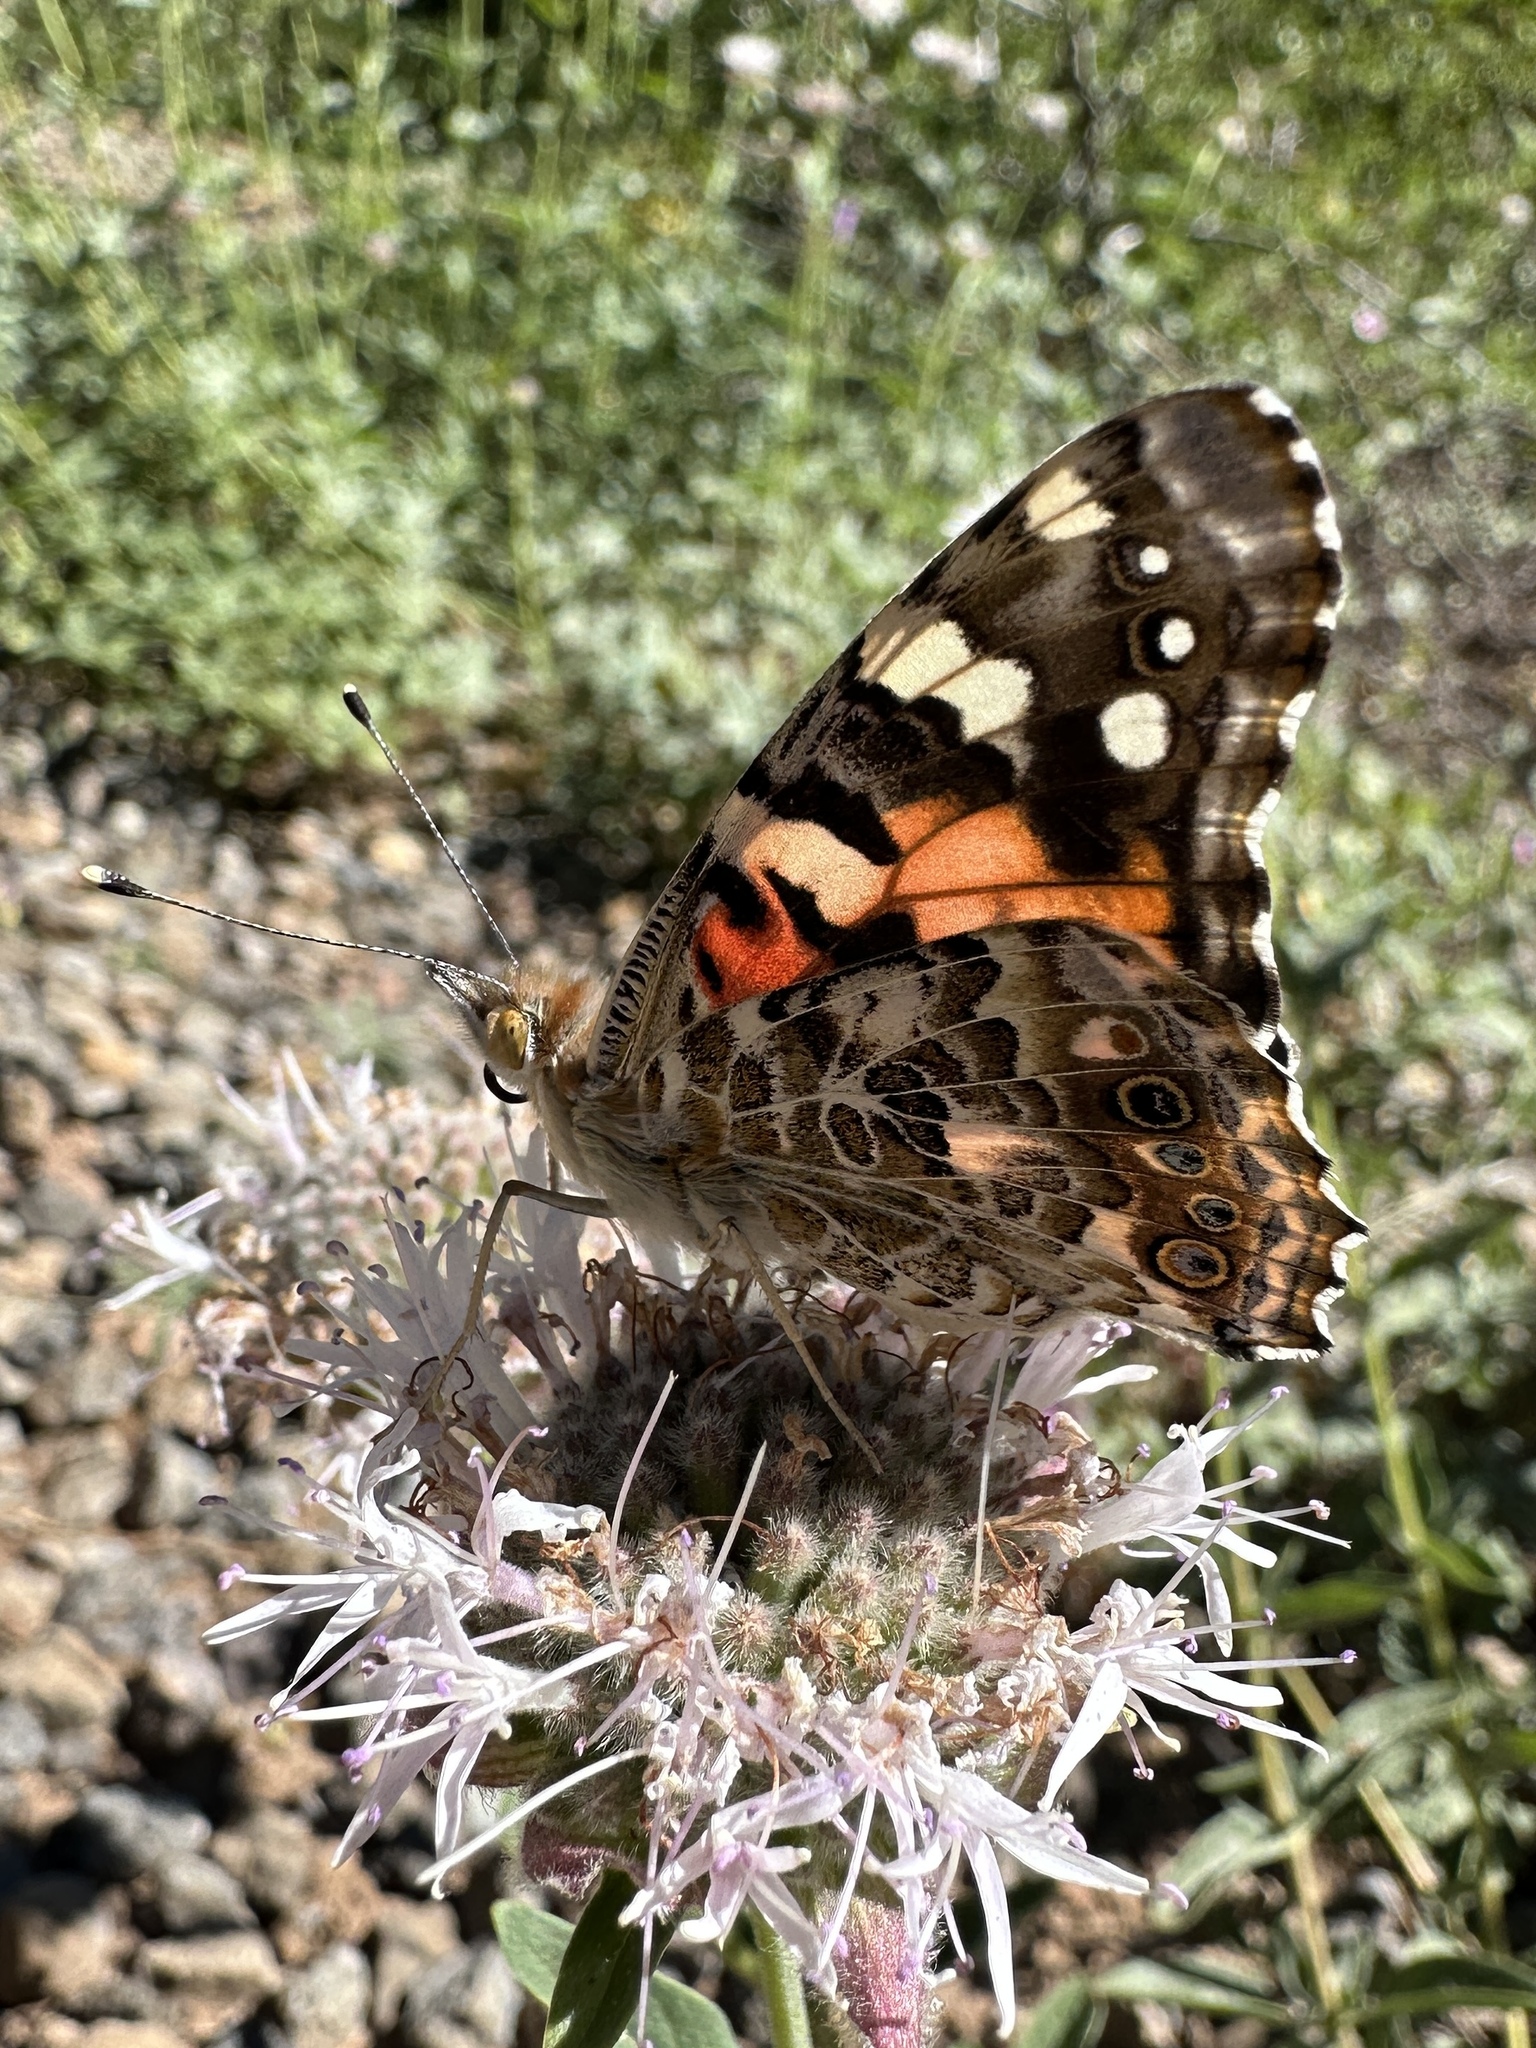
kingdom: Animalia
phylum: Arthropoda
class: Insecta
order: Lepidoptera
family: Nymphalidae
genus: Vanessa
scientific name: Vanessa cardui
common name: Painted lady
